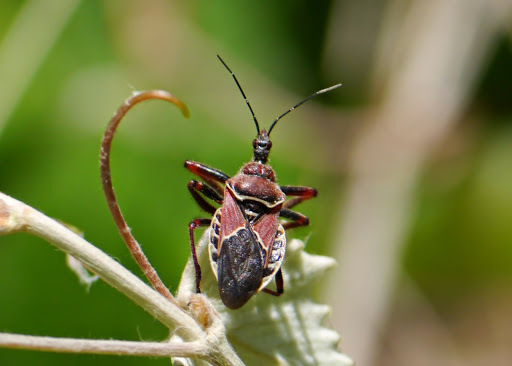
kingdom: Animalia
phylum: Arthropoda
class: Insecta
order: Hemiptera
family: Reduviidae
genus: Apiomerus
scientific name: Apiomerus spissipes
